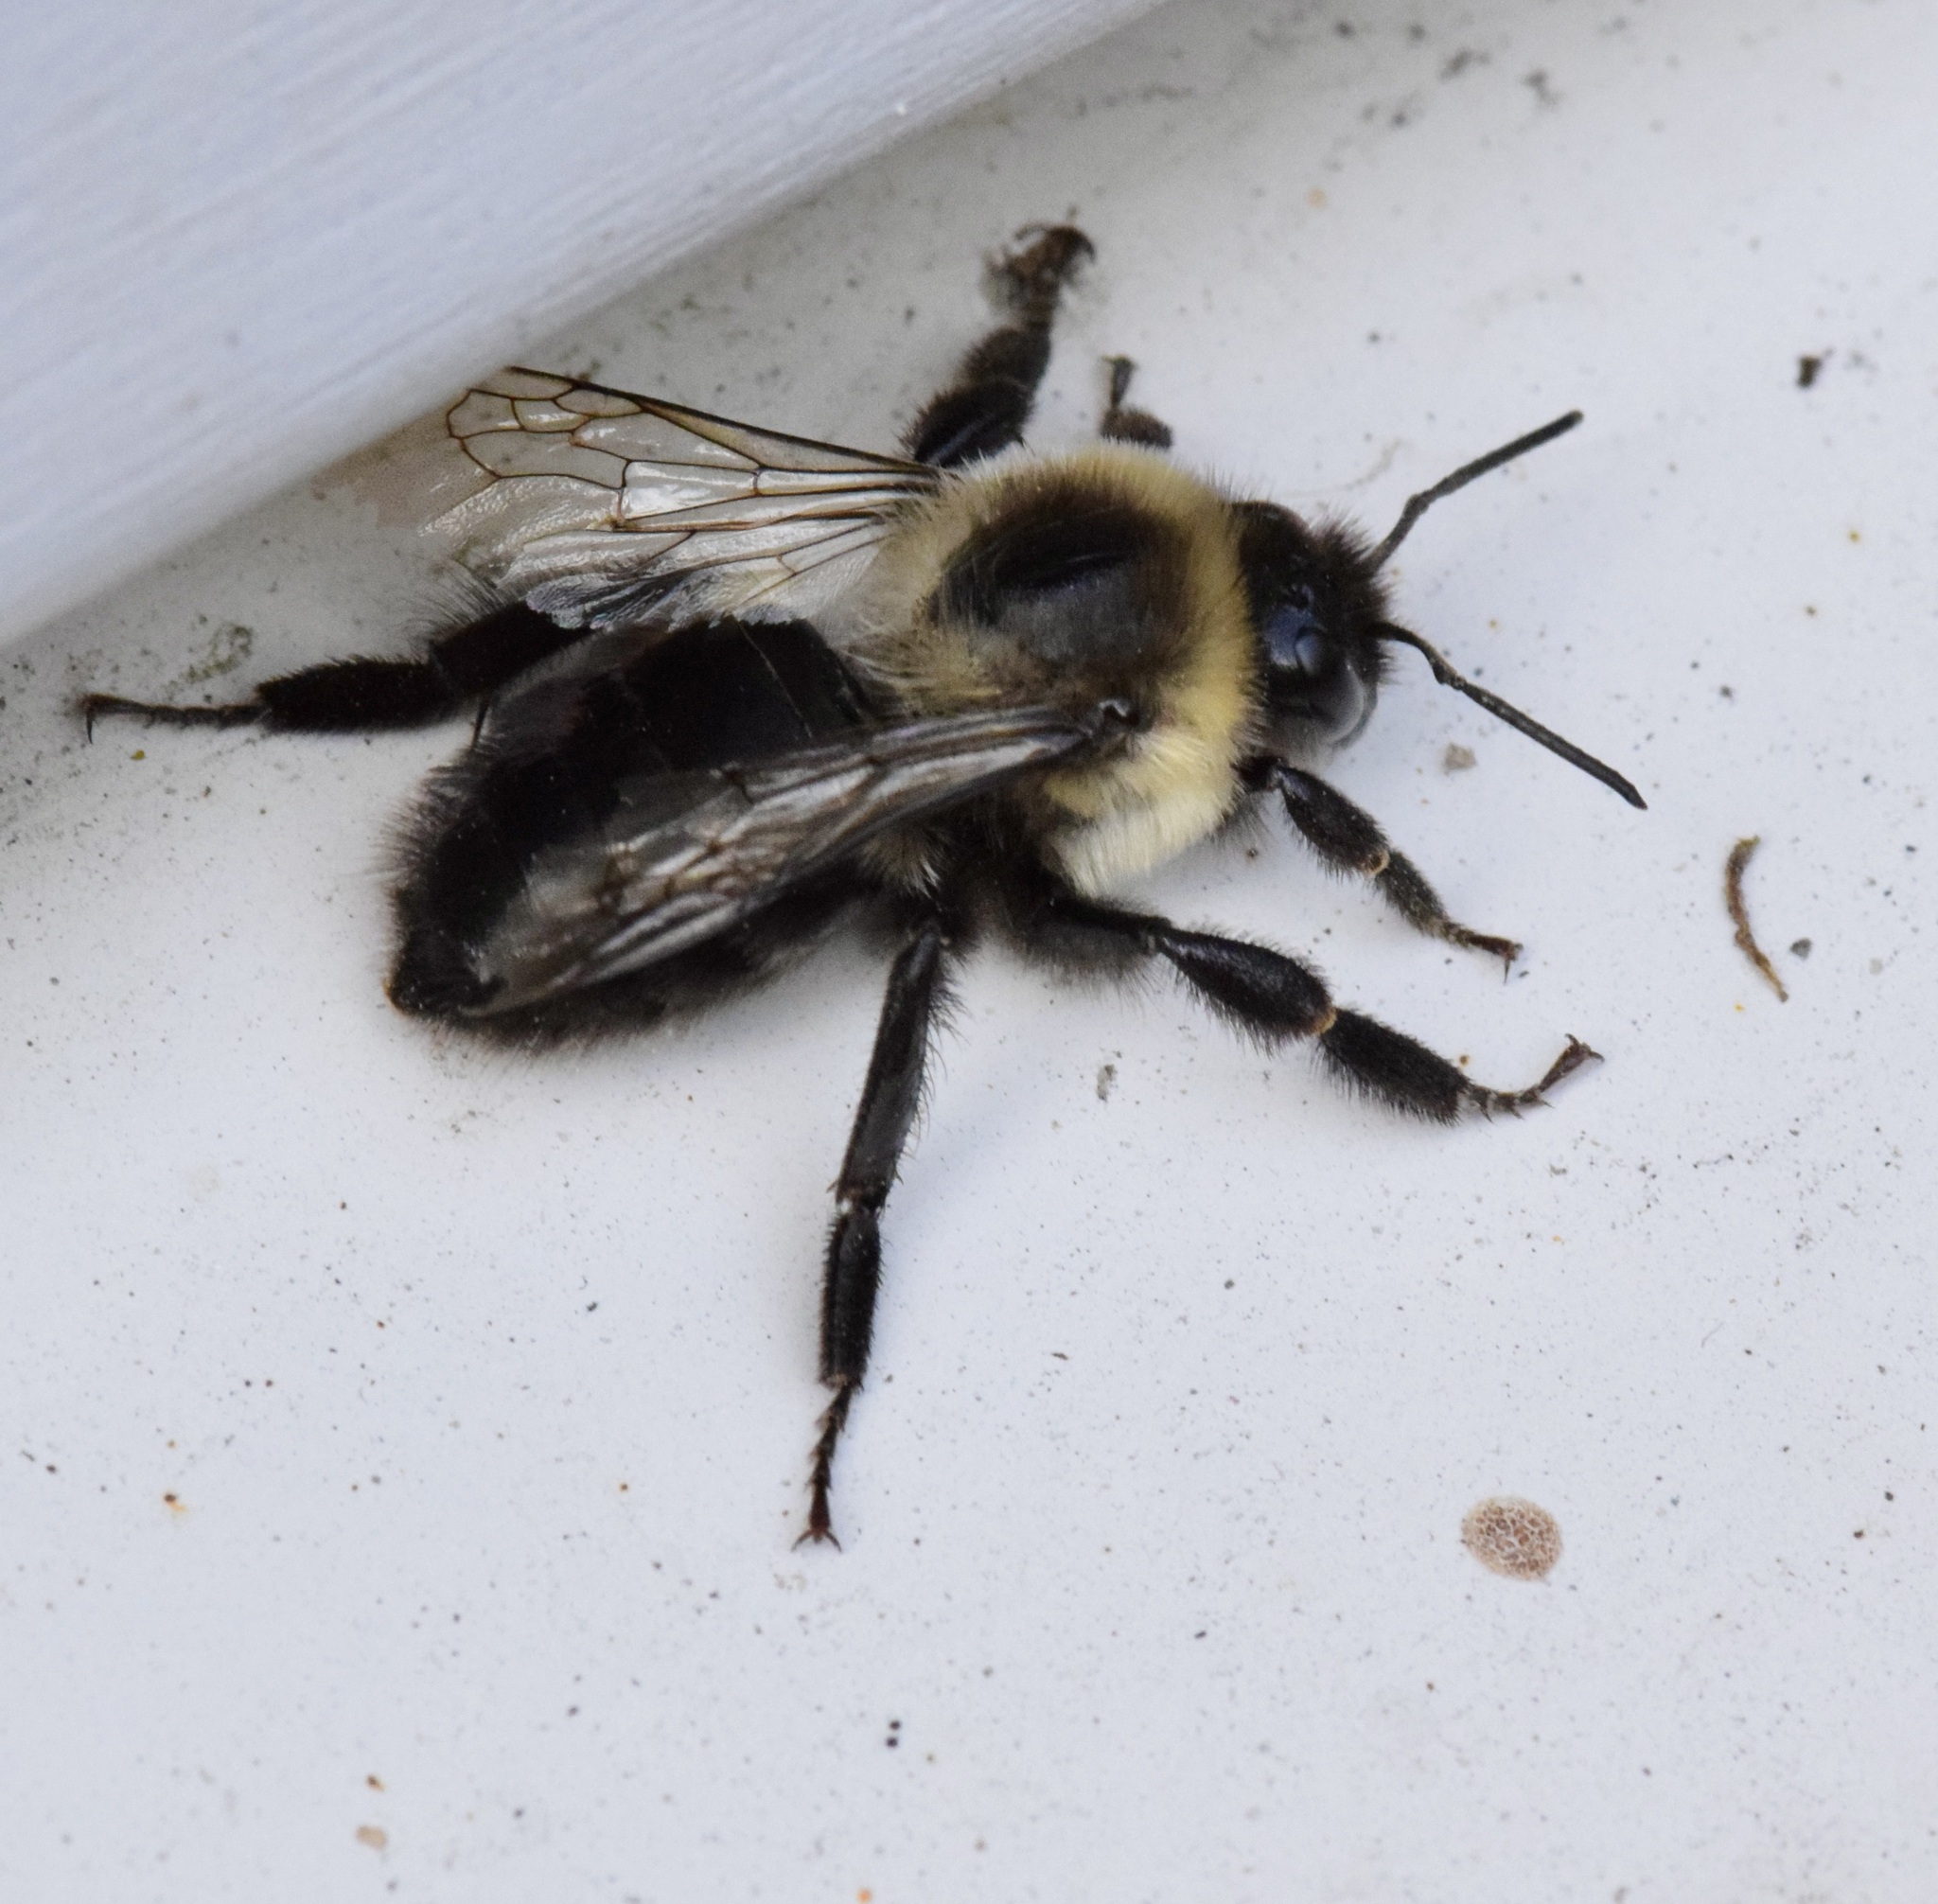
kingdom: Animalia
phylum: Arthropoda
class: Insecta
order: Hymenoptera
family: Apidae
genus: Bombus
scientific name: Bombus impatiens
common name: Common eastern bumble bee
